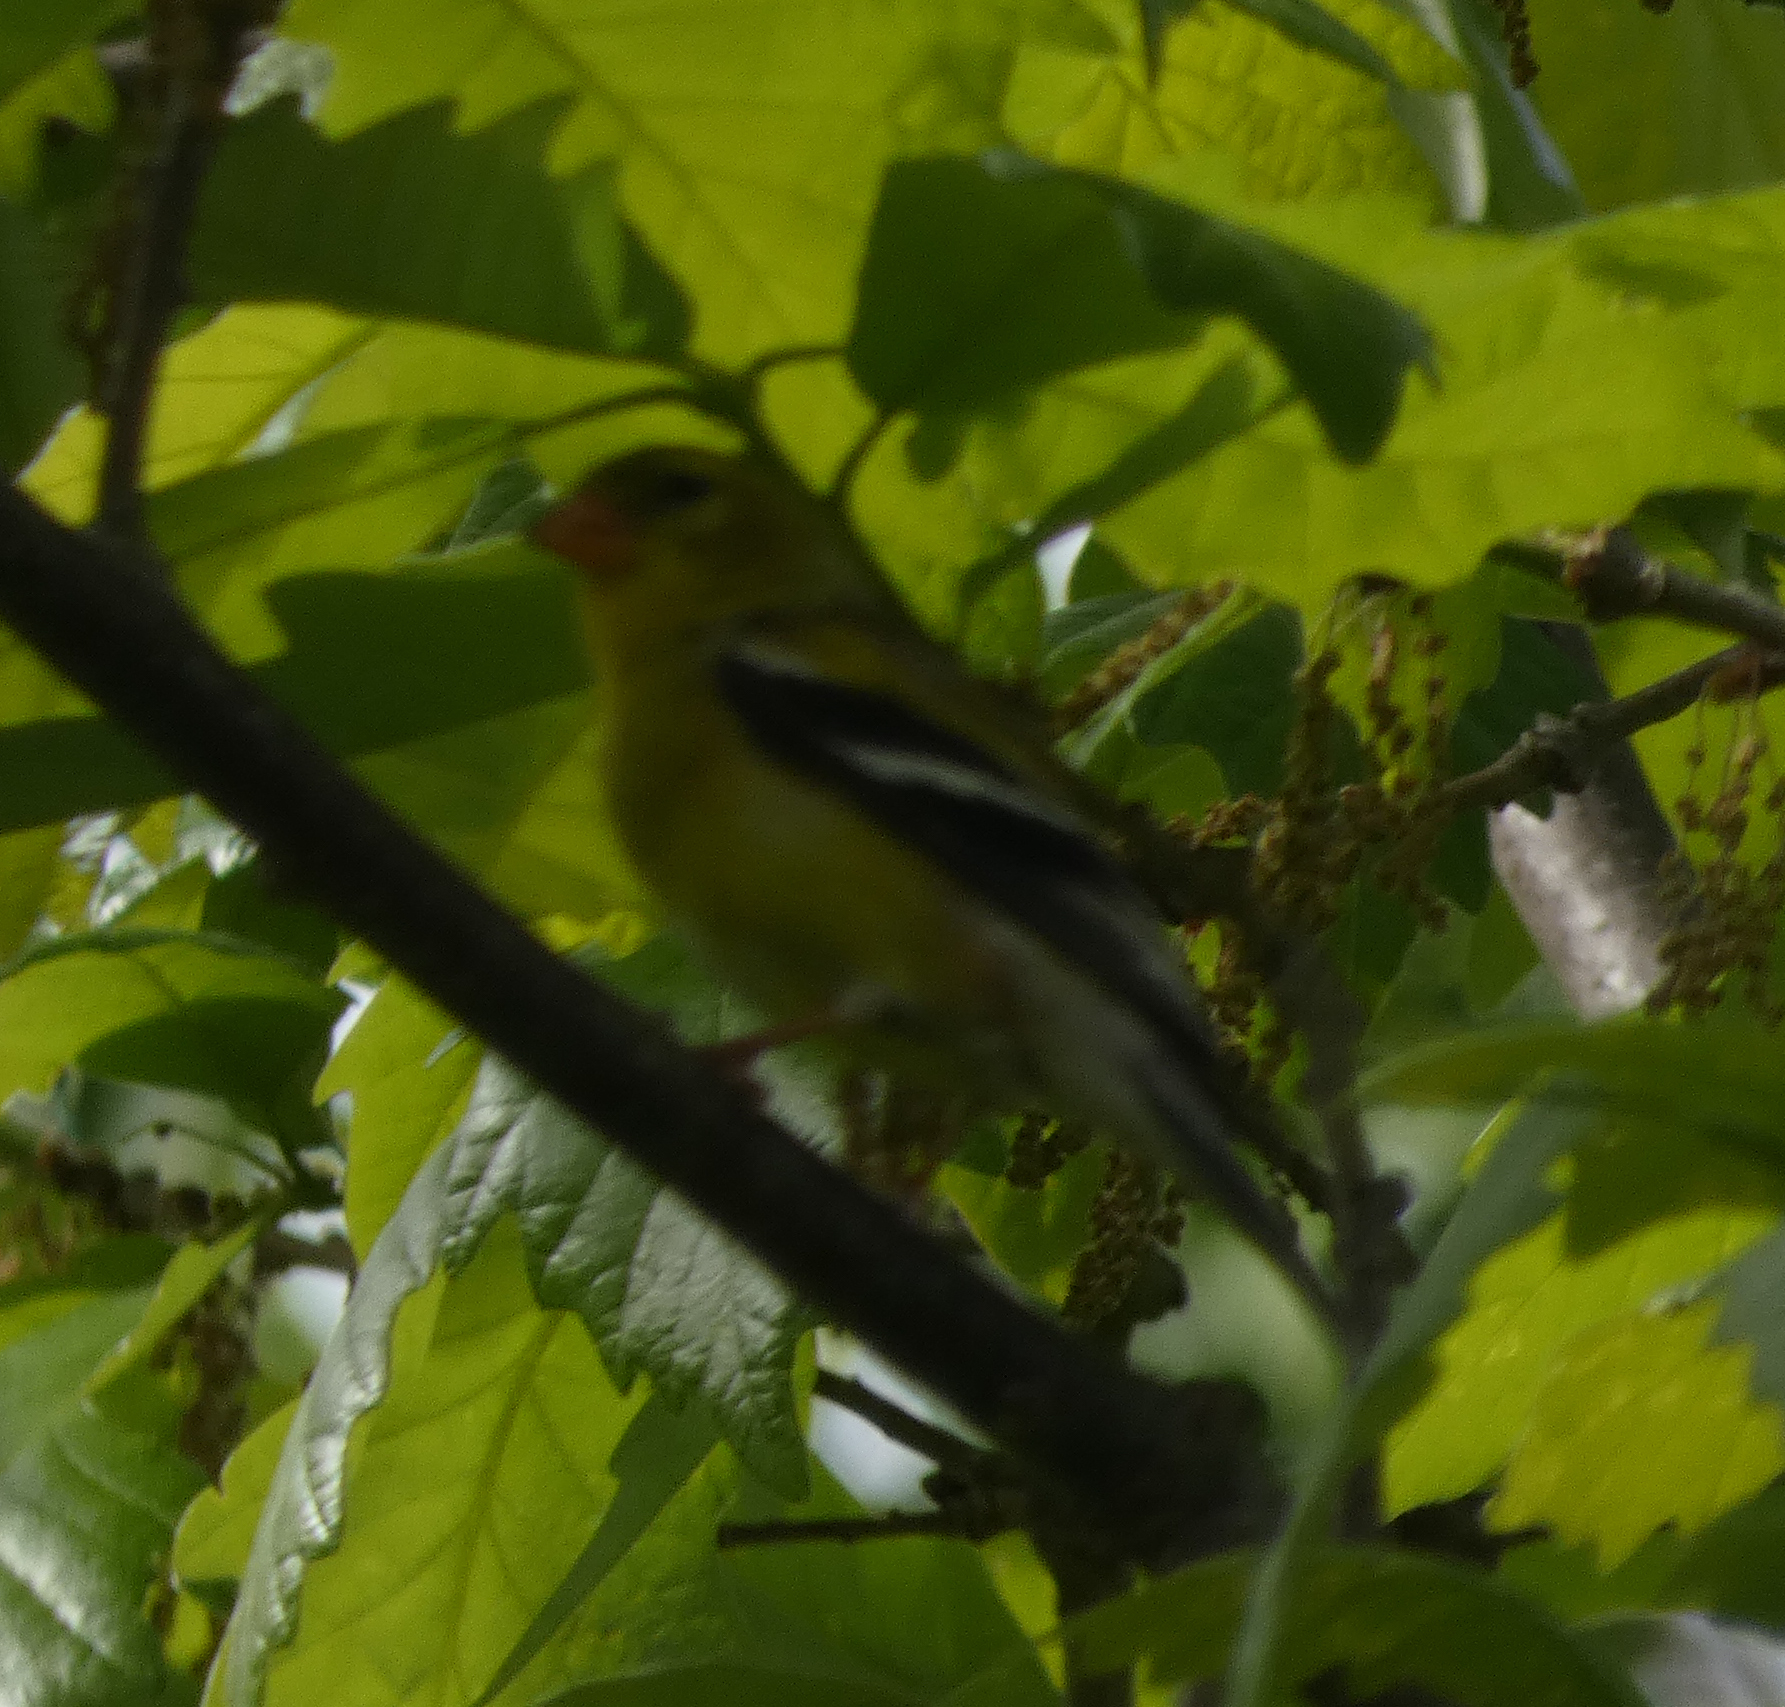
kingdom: Animalia
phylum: Chordata
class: Aves
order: Passeriformes
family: Fringillidae
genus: Spinus
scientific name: Spinus tristis
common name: American goldfinch
